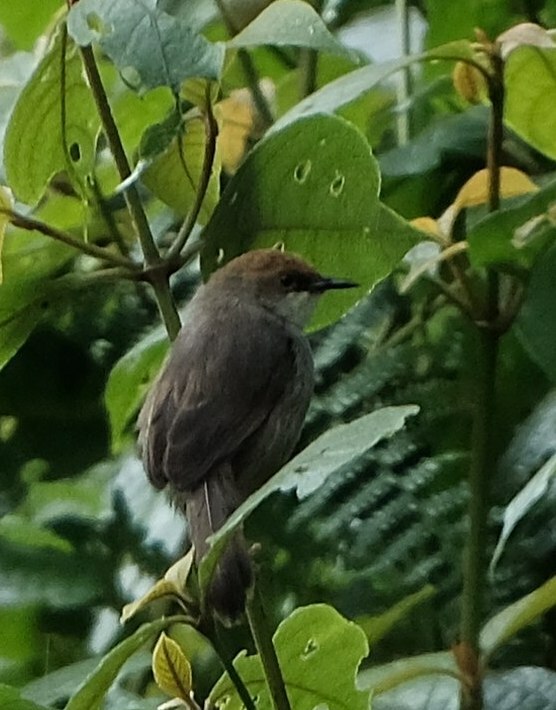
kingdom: Animalia
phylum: Chordata
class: Aves
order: Passeriformes
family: Cisticolidae
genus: Cisticola
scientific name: Cisticola chubbi
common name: Chubb's cisticola
